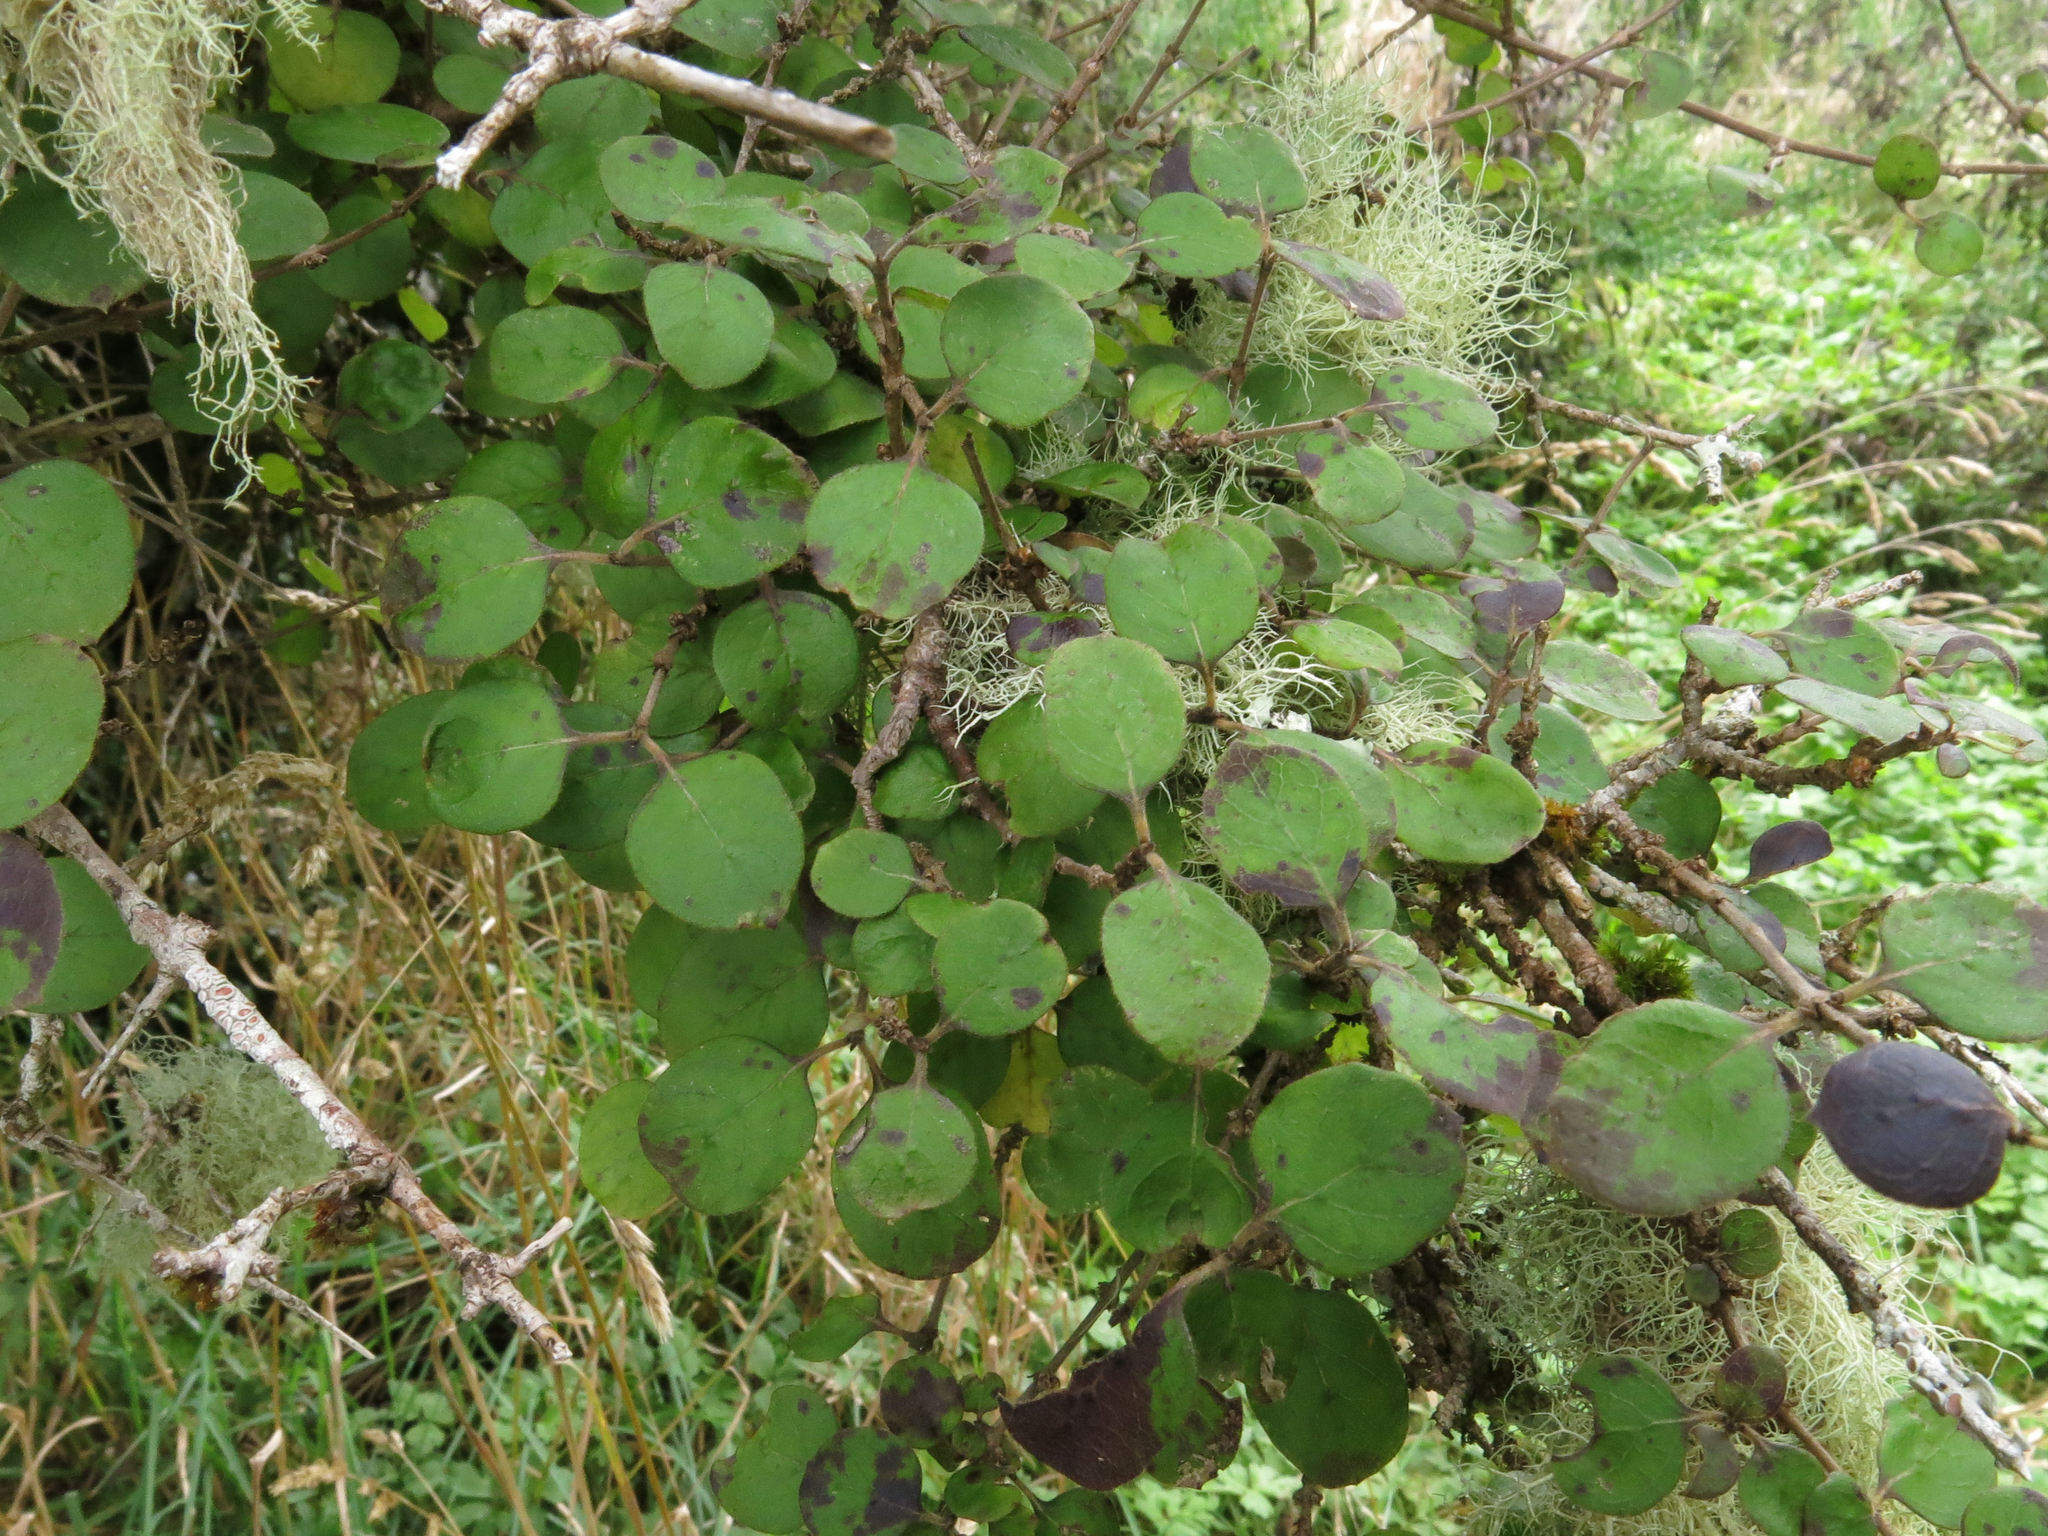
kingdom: Plantae
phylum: Tracheophyta
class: Magnoliopsida
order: Gentianales
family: Rubiaceae
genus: Coprosma
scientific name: Coprosma rotundifolia
